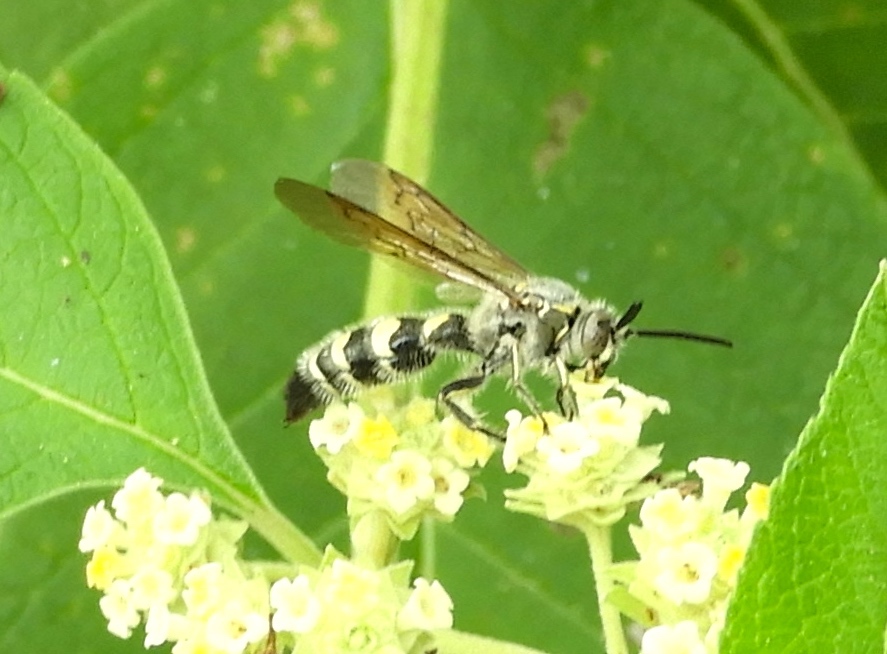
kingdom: Animalia
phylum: Arthropoda
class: Insecta
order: Hymenoptera
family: Scoliidae
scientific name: Scoliidae
